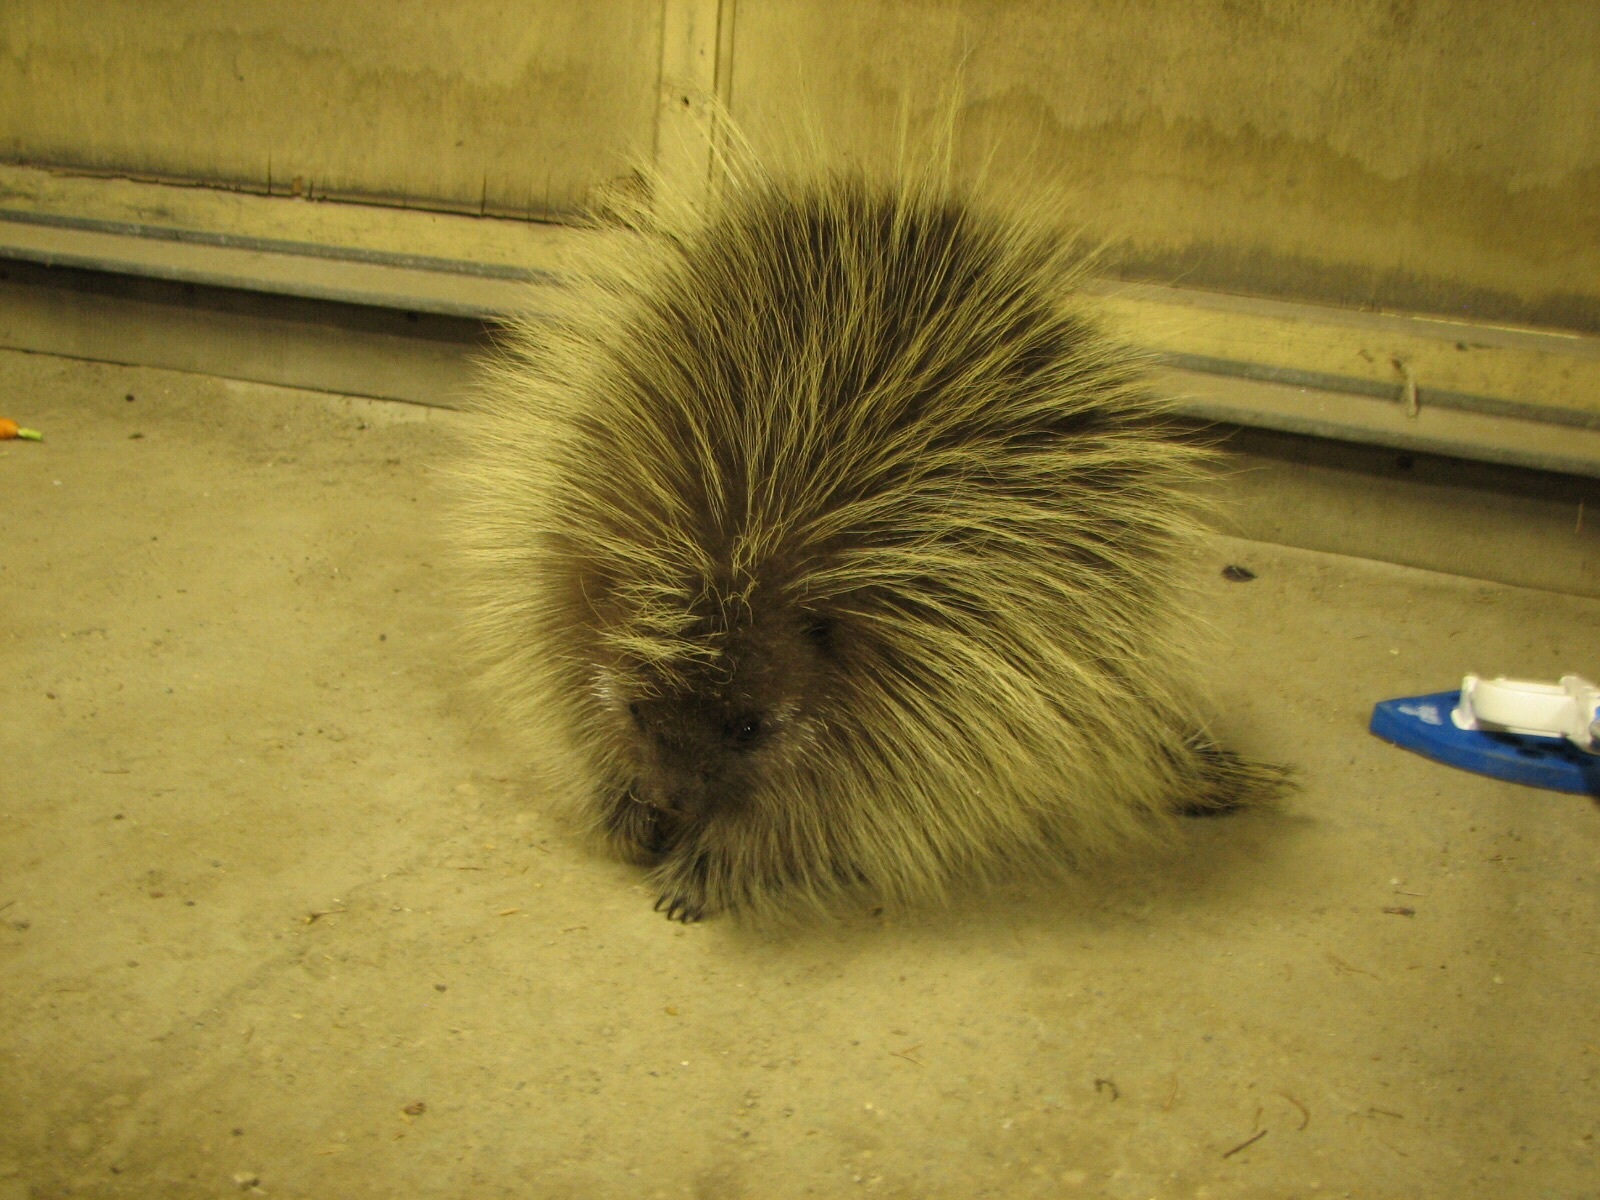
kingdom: Animalia
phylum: Chordata
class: Mammalia
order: Rodentia
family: Erethizontidae
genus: Erethizon
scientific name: Erethizon dorsatus
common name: North american porcupine
